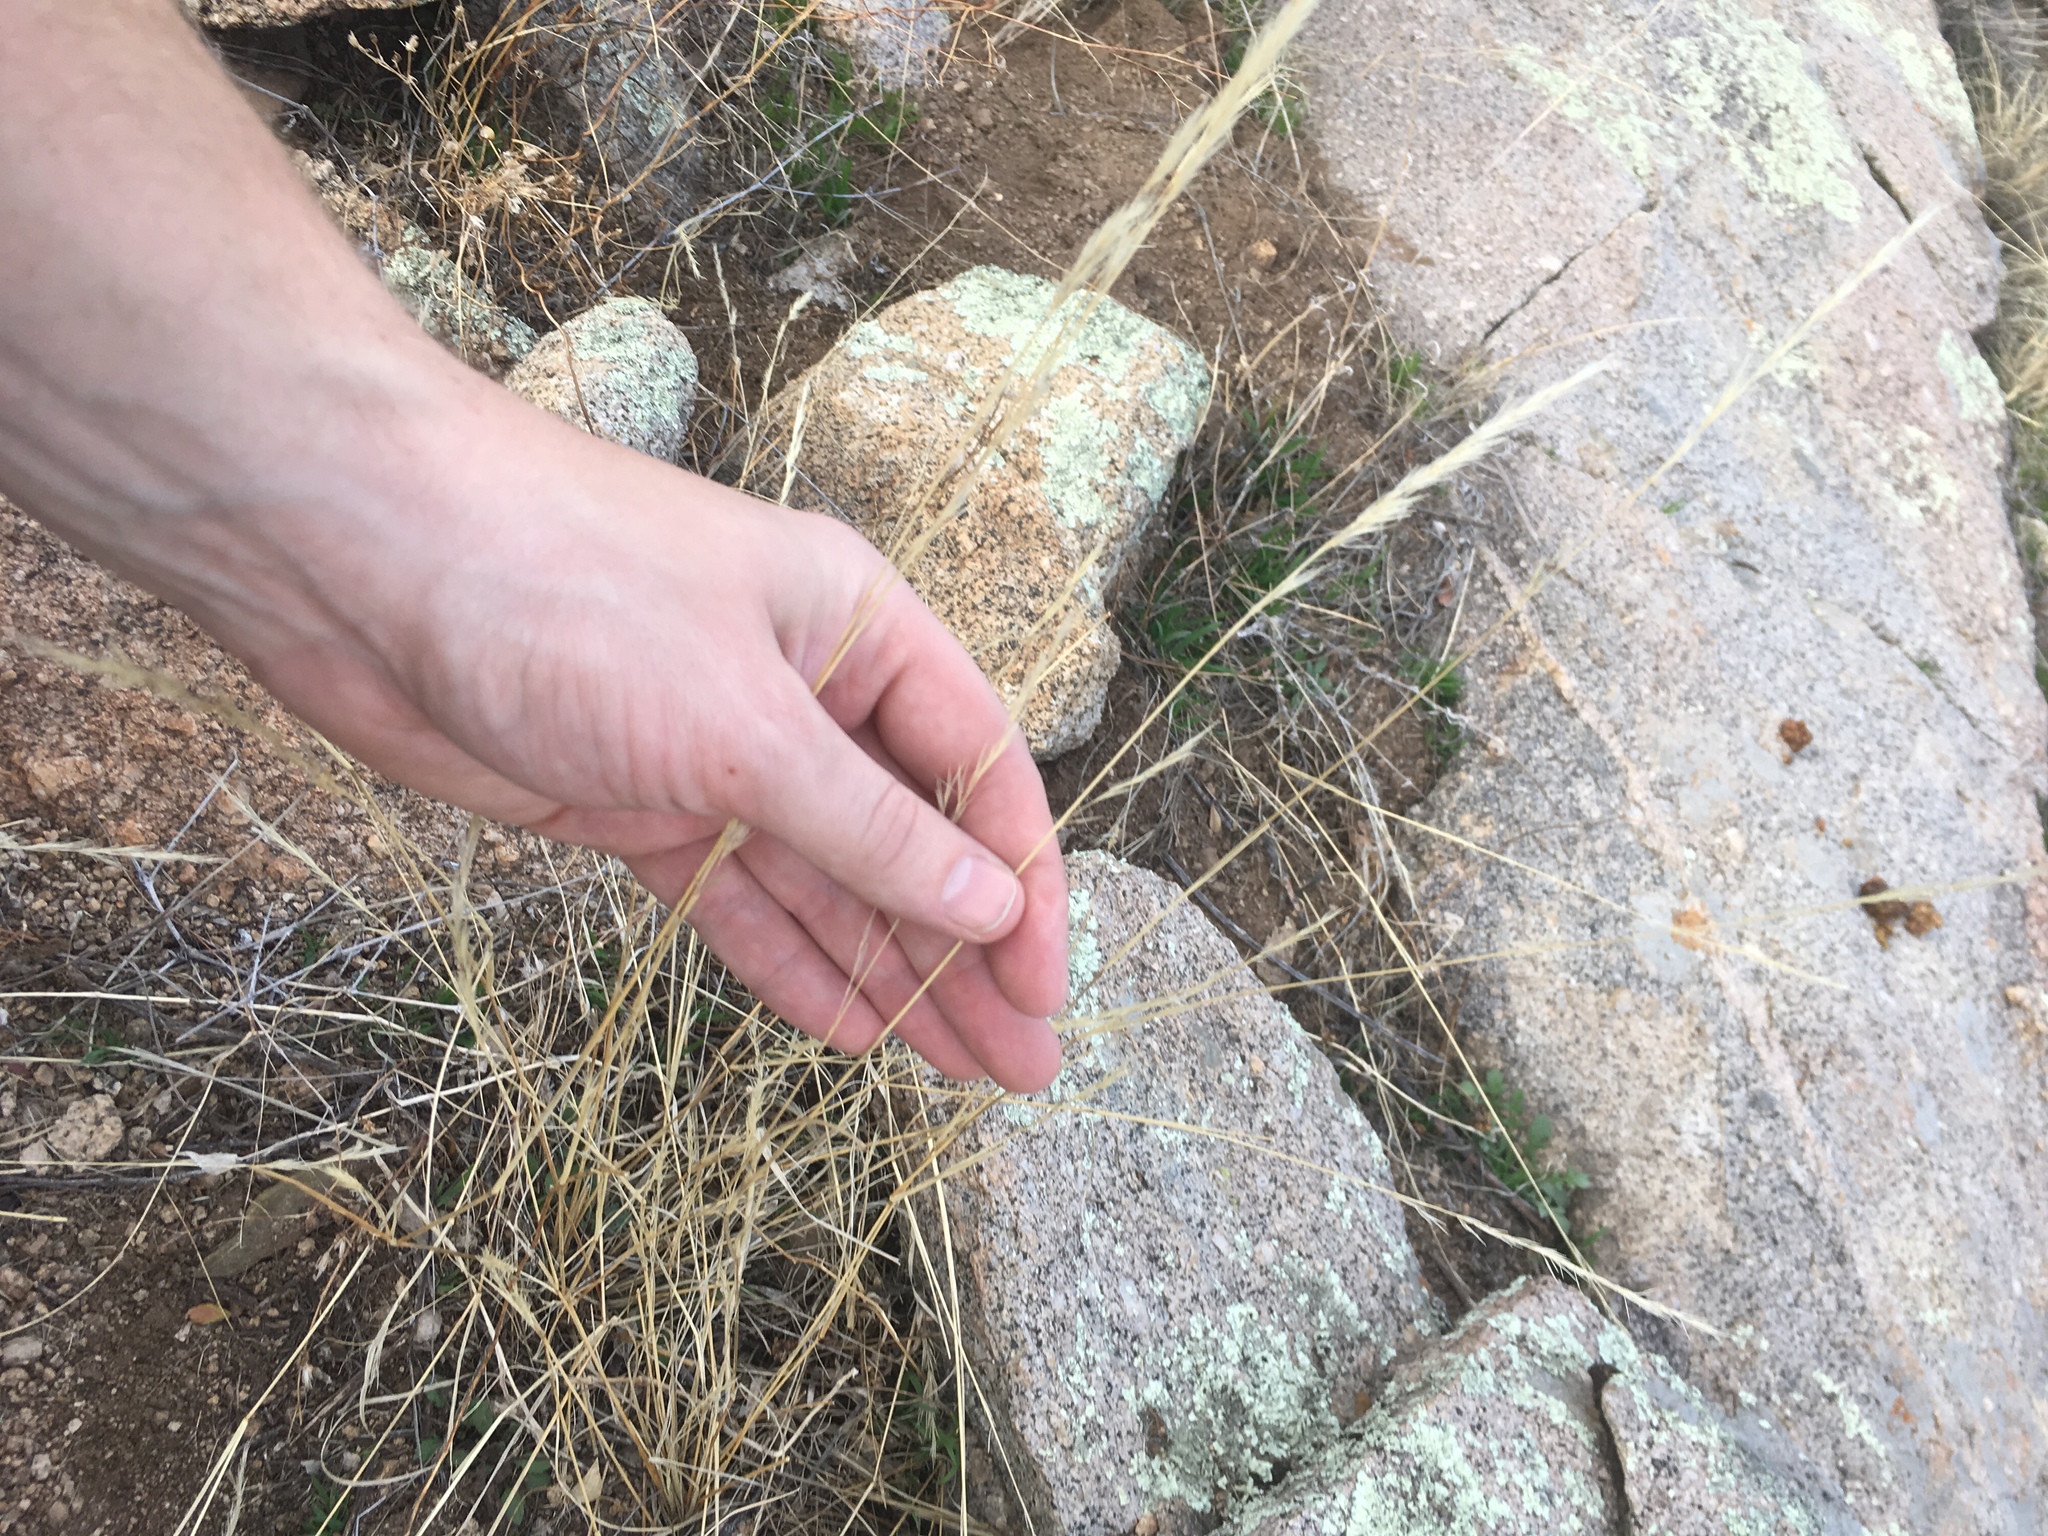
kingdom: Plantae
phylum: Tracheophyta
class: Liliopsida
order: Poales
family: Poaceae
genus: Aristida
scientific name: Aristida adscensionis
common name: Sixweeks threeawn
